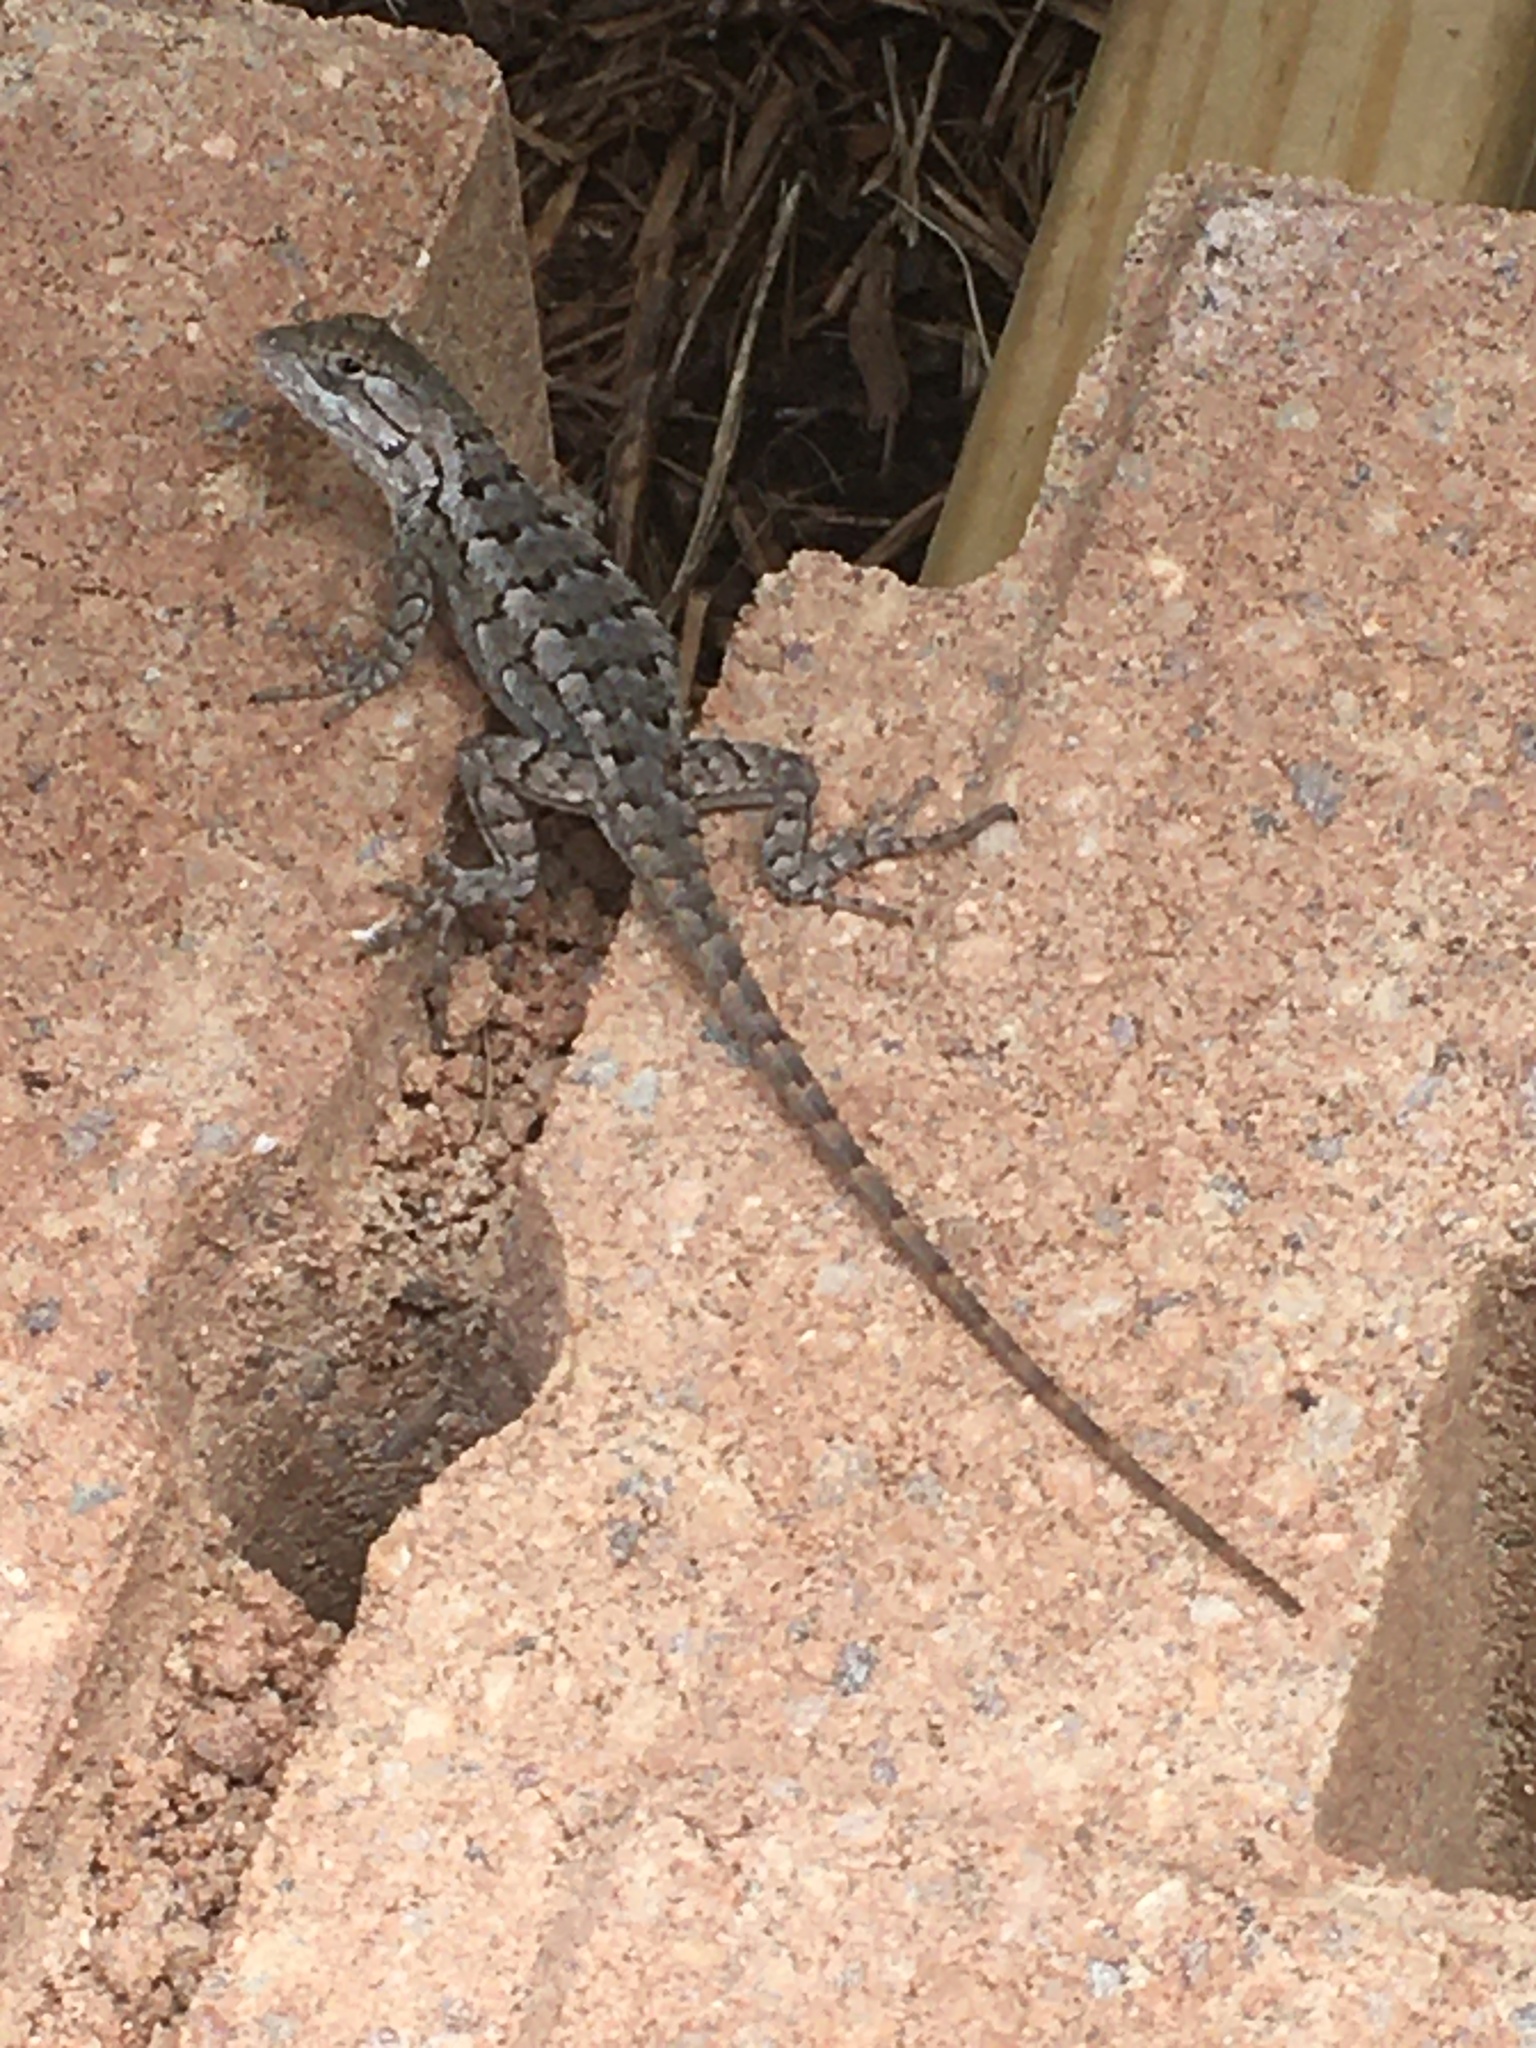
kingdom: Animalia
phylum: Chordata
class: Squamata
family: Phrynosomatidae
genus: Sceloporus
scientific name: Sceloporus olivaceus
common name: Texas spiny lizard
